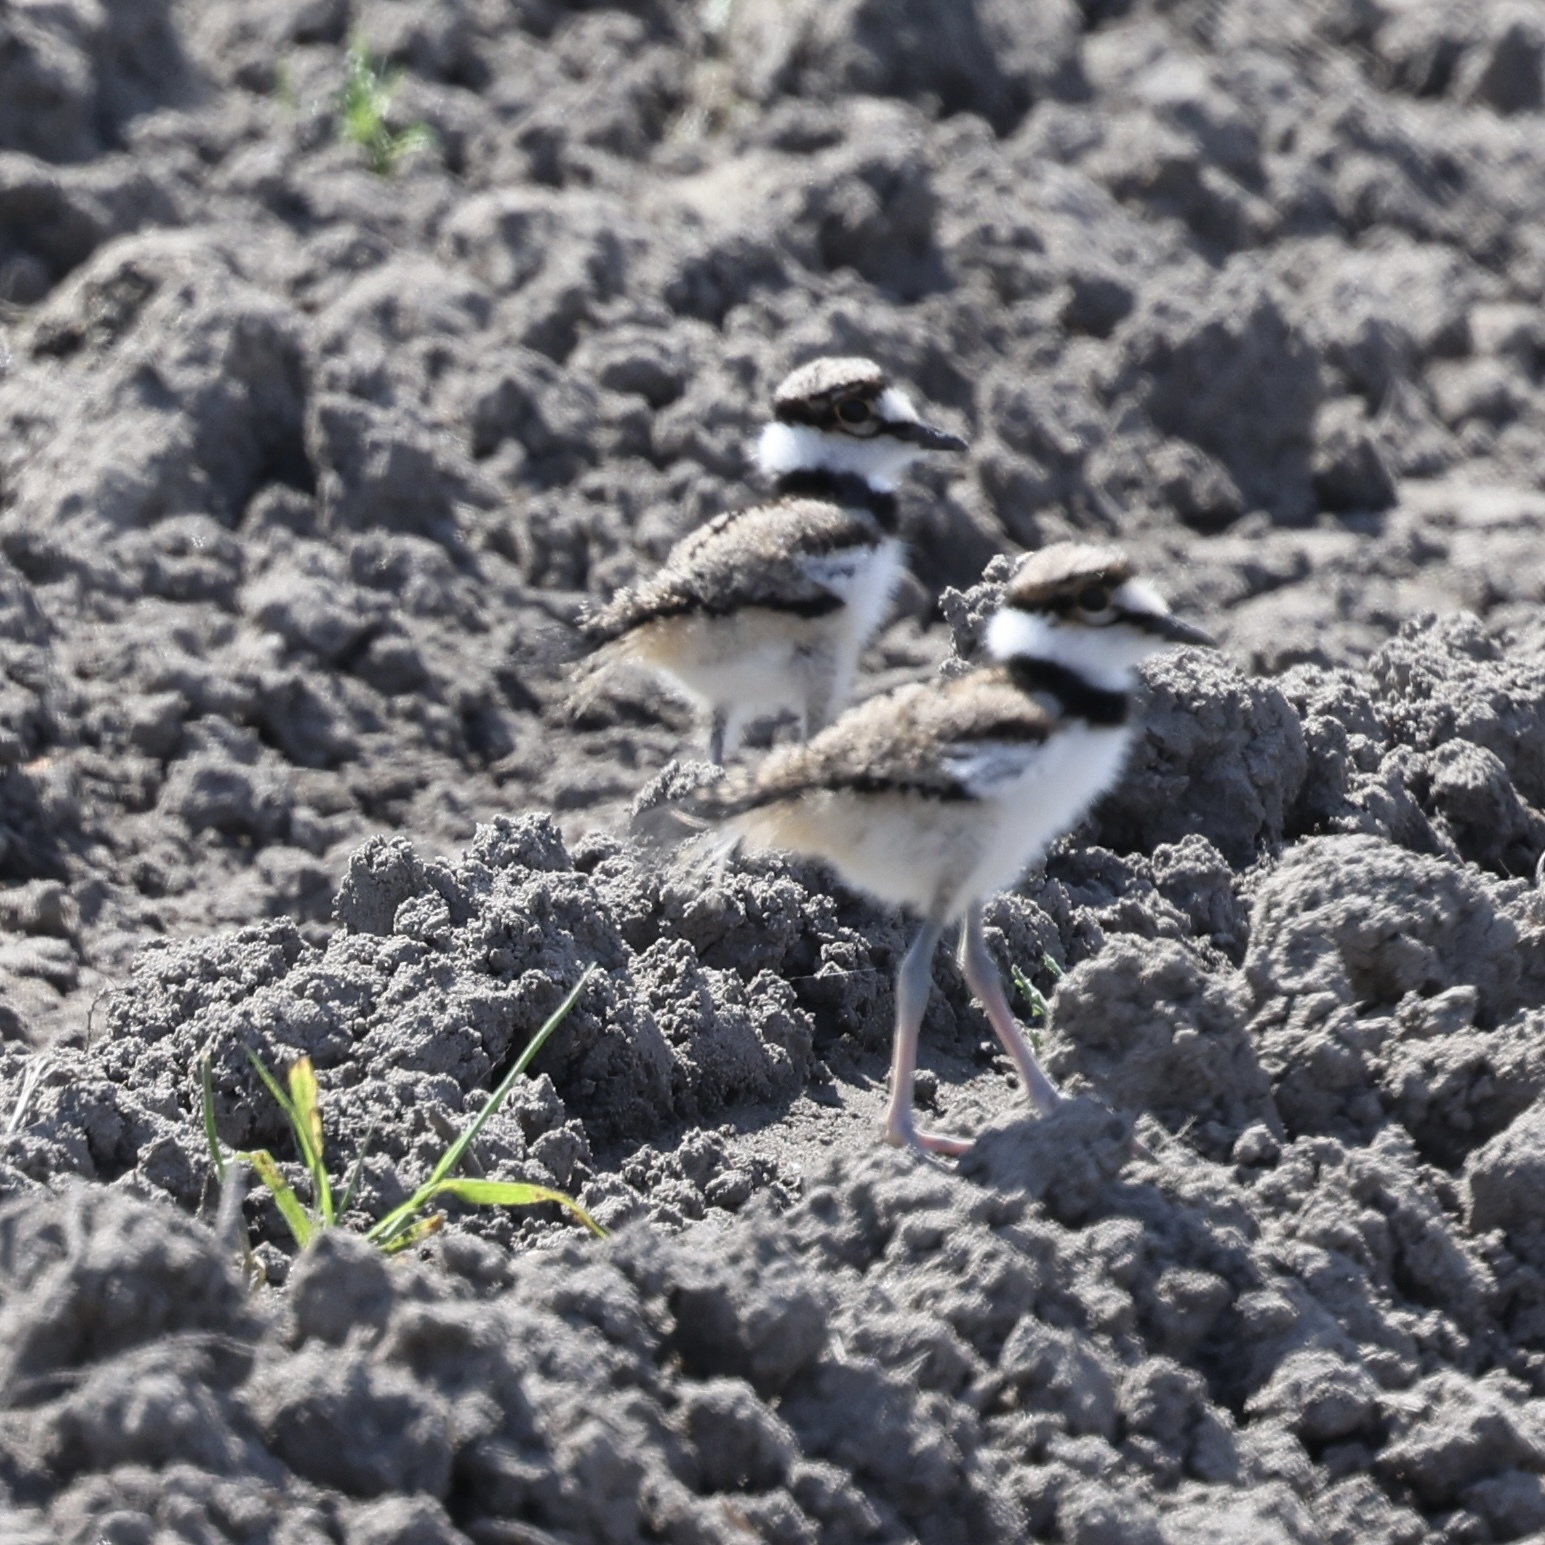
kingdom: Animalia
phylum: Chordata
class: Aves
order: Charadriiformes
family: Charadriidae
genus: Charadrius
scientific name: Charadrius vociferus
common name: Killdeer
